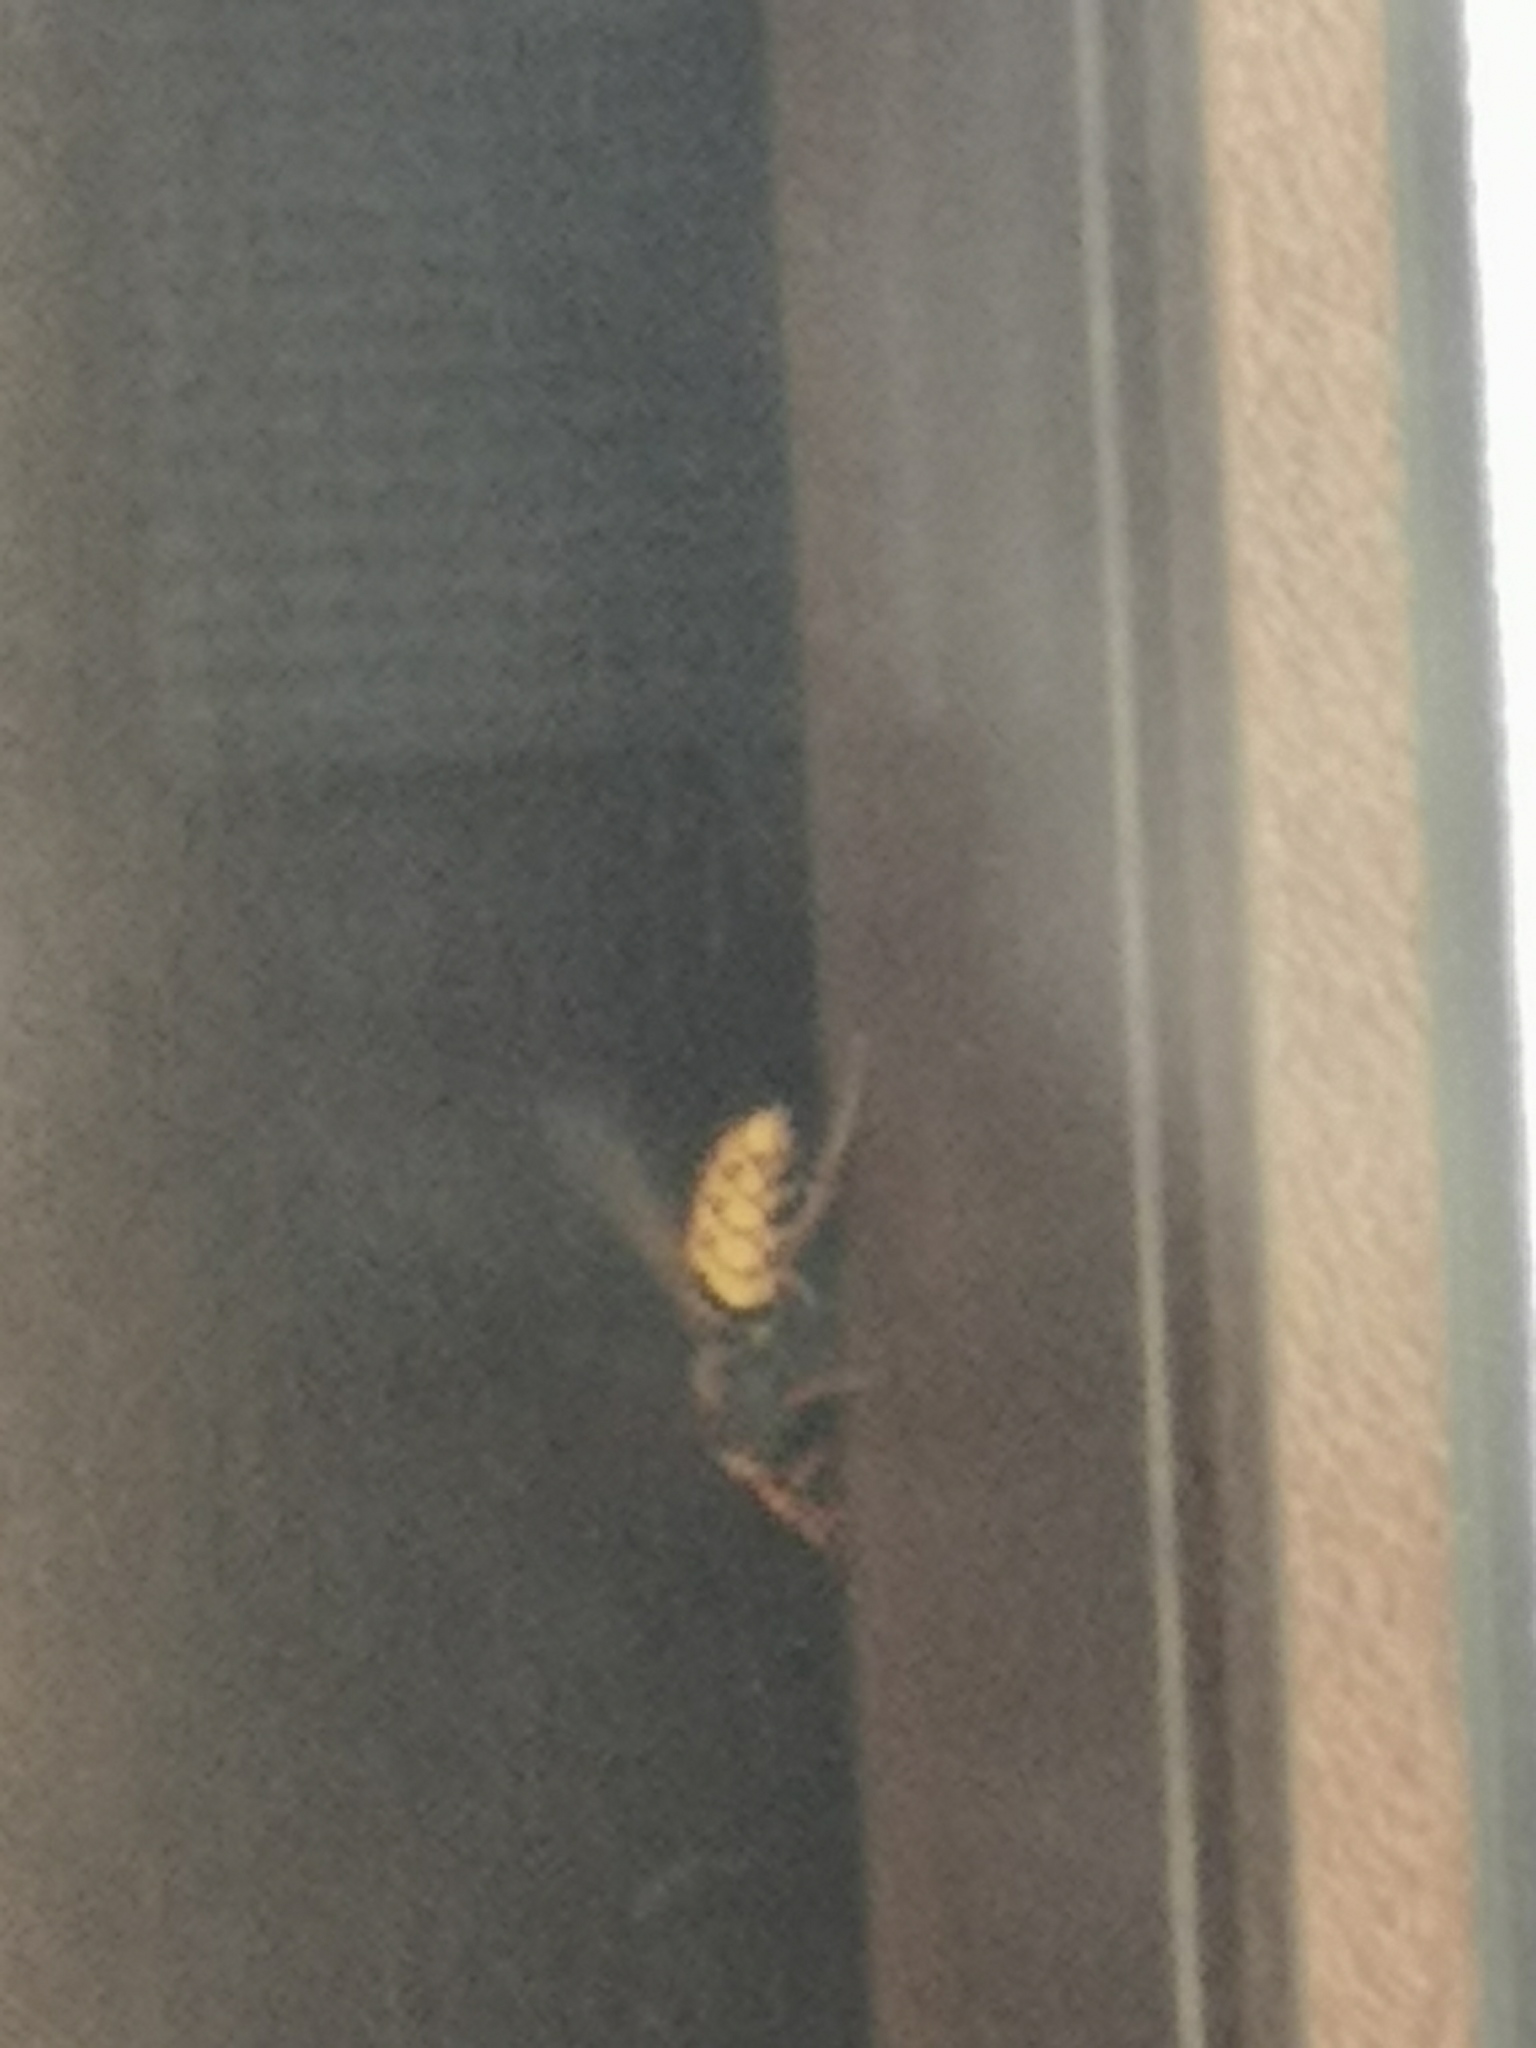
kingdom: Animalia
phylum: Arthropoda
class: Insecta
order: Hymenoptera
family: Vespidae
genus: Vespa
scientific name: Vespa crabro
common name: Hornet
